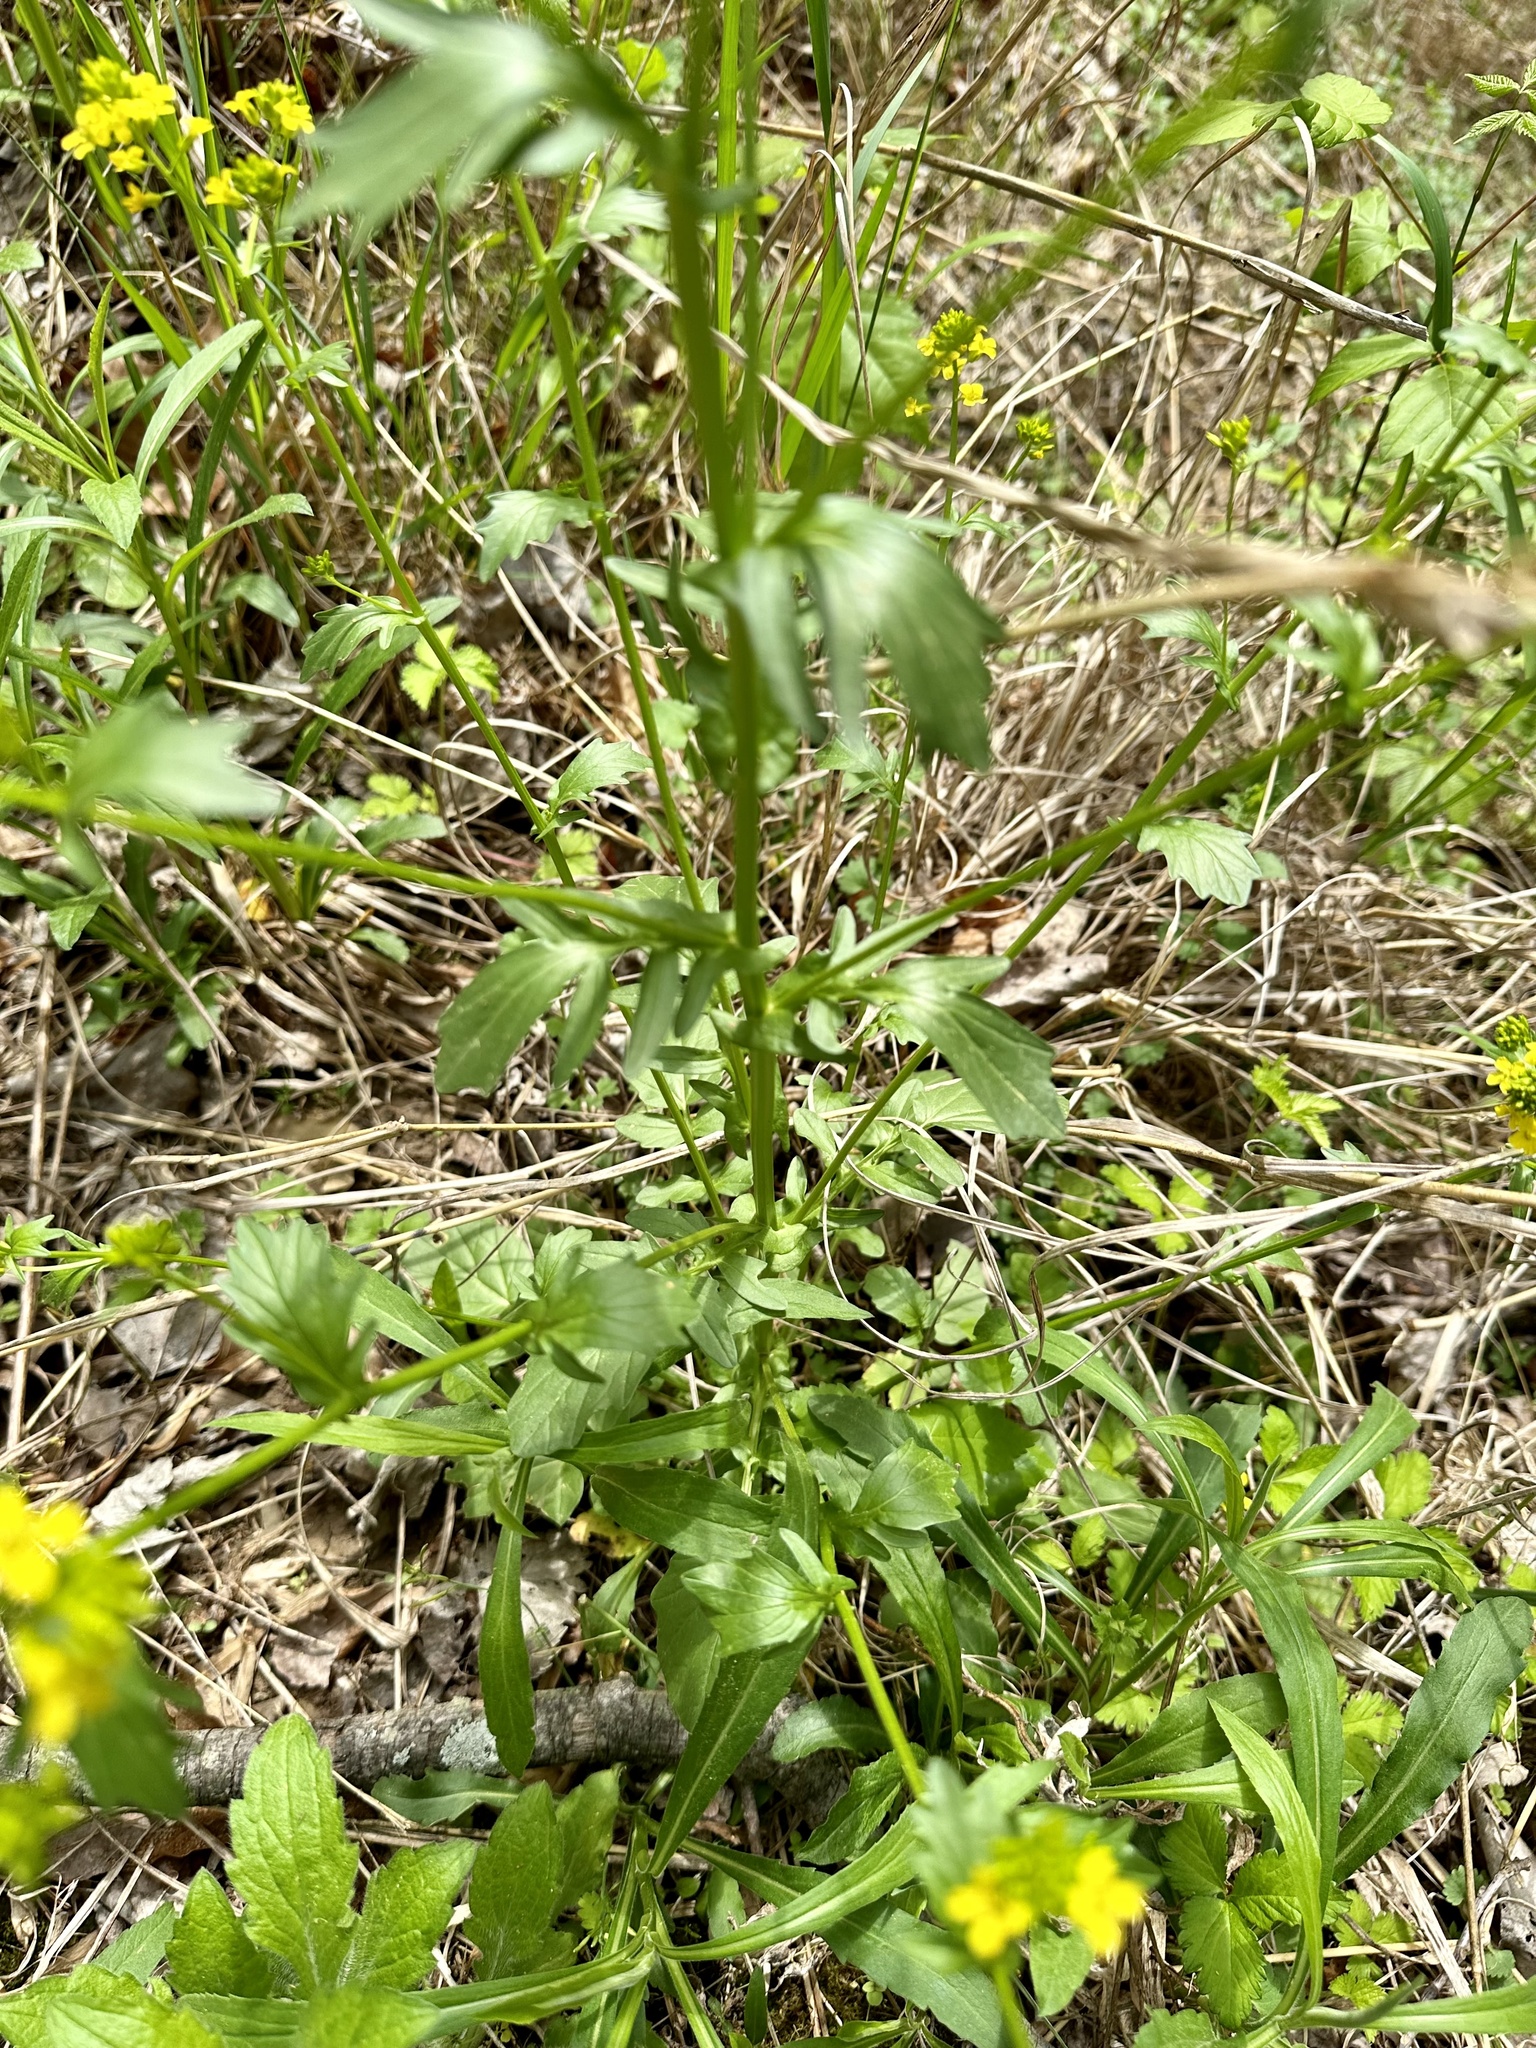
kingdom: Plantae
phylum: Tracheophyta
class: Magnoliopsida
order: Brassicales
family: Brassicaceae
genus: Barbarea
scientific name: Barbarea vulgaris
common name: Cressy-greens
